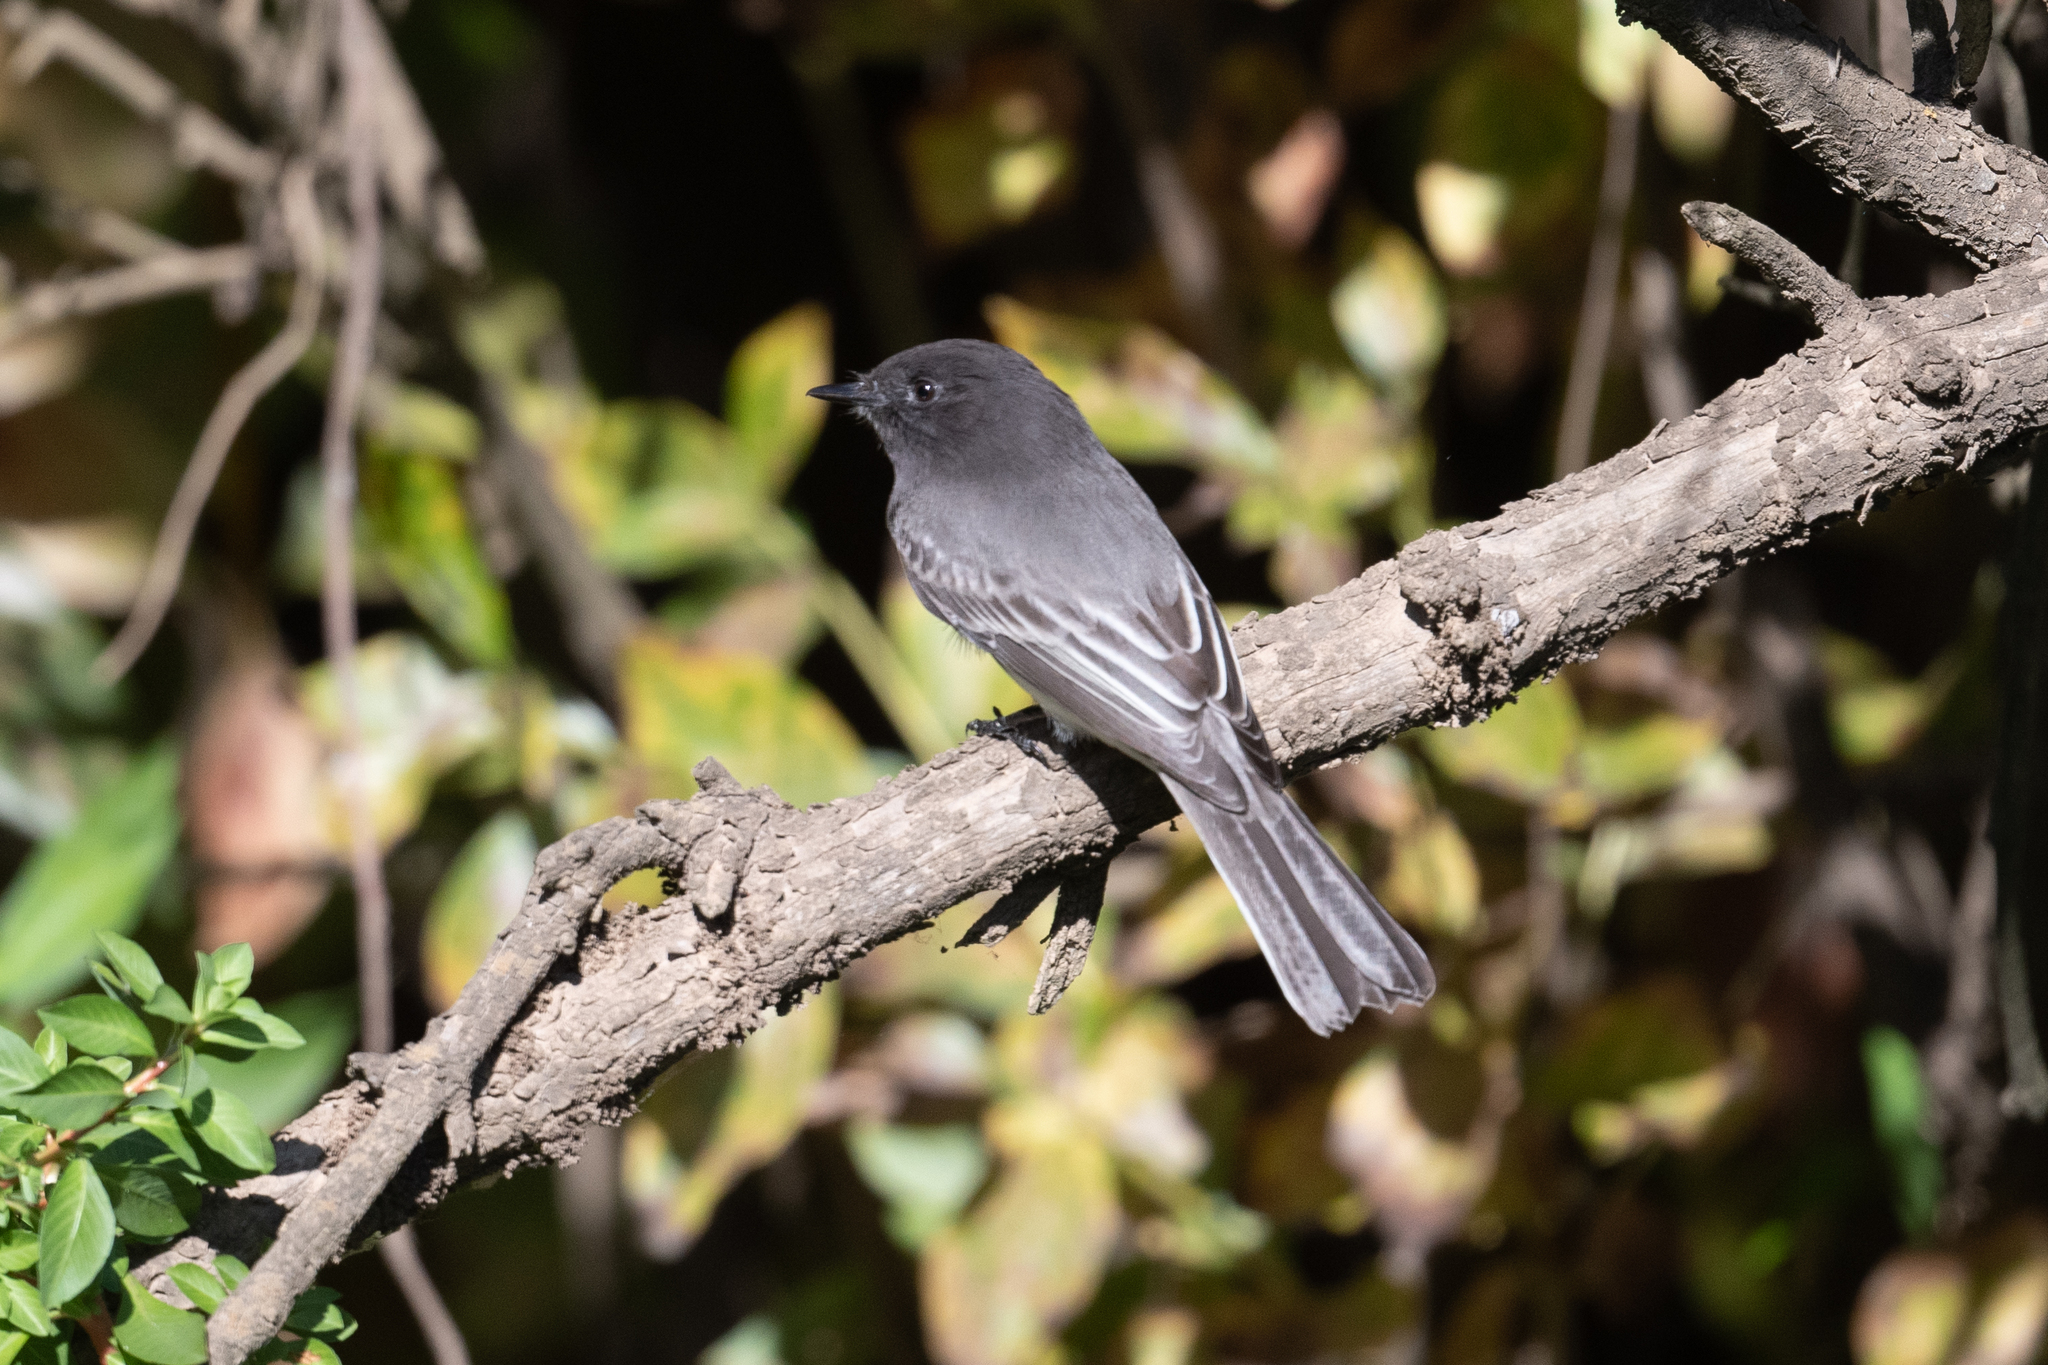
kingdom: Animalia
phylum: Chordata
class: Aves
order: Passeriformes
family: Tyrannidae
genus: Sayornis
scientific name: Sayornis nigricans
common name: Black phoebe
